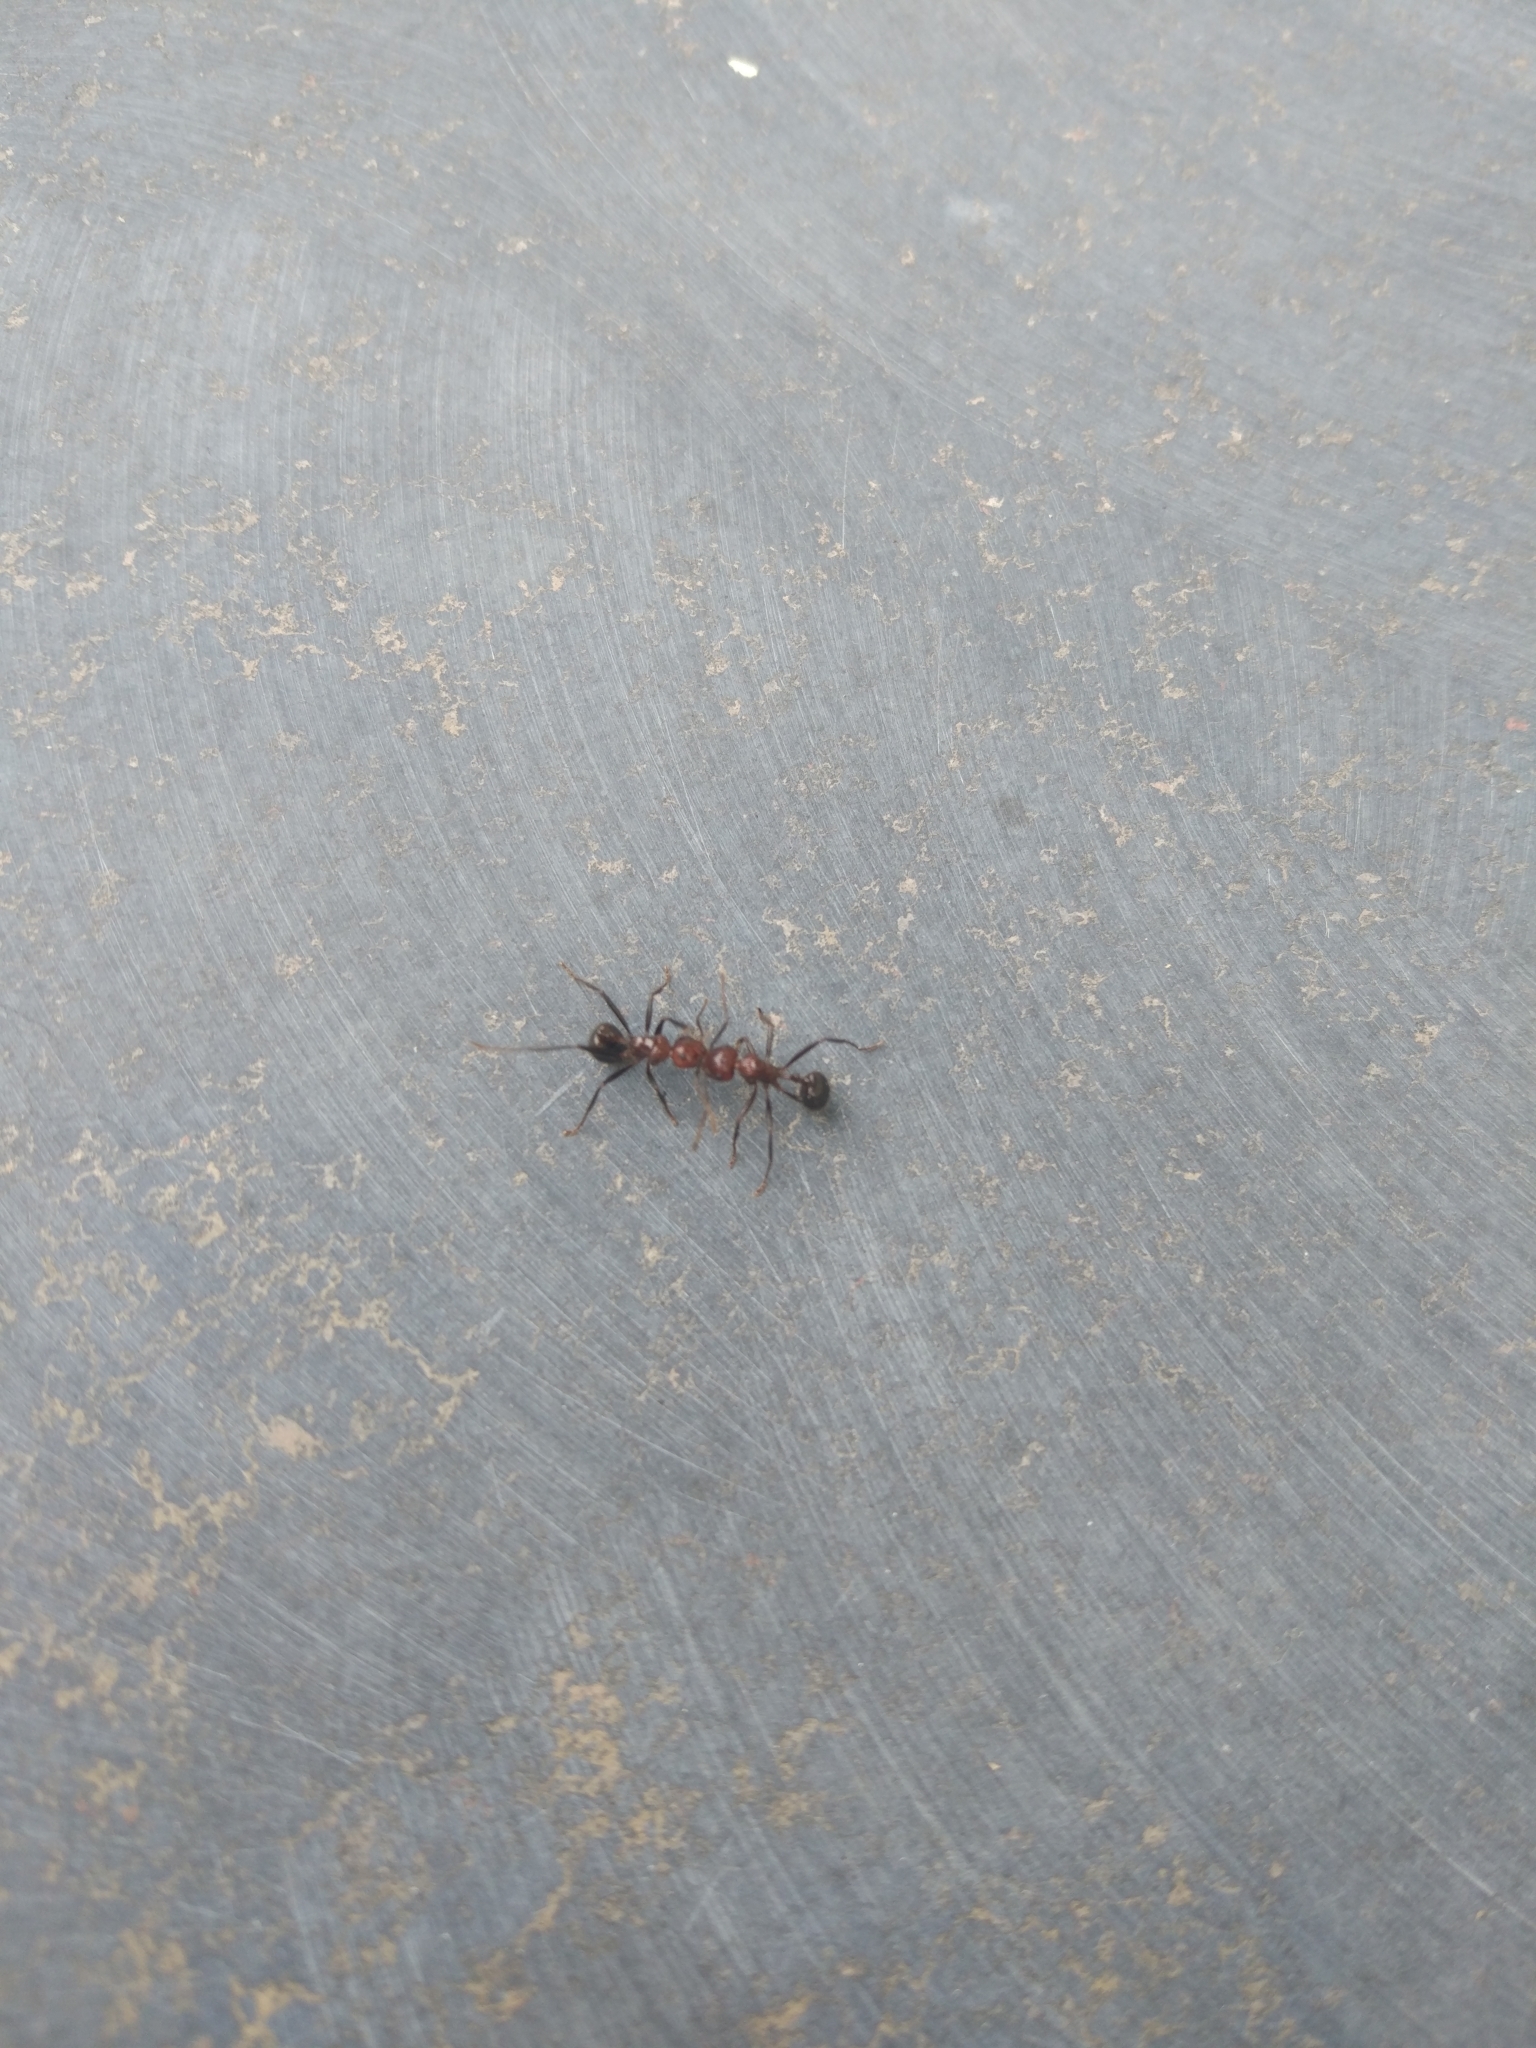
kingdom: Animalia
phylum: Arthropoda
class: Insecta
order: Hymenoptera
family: Formicidae
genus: Myrmicaria
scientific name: Myrmicaria brunnea
